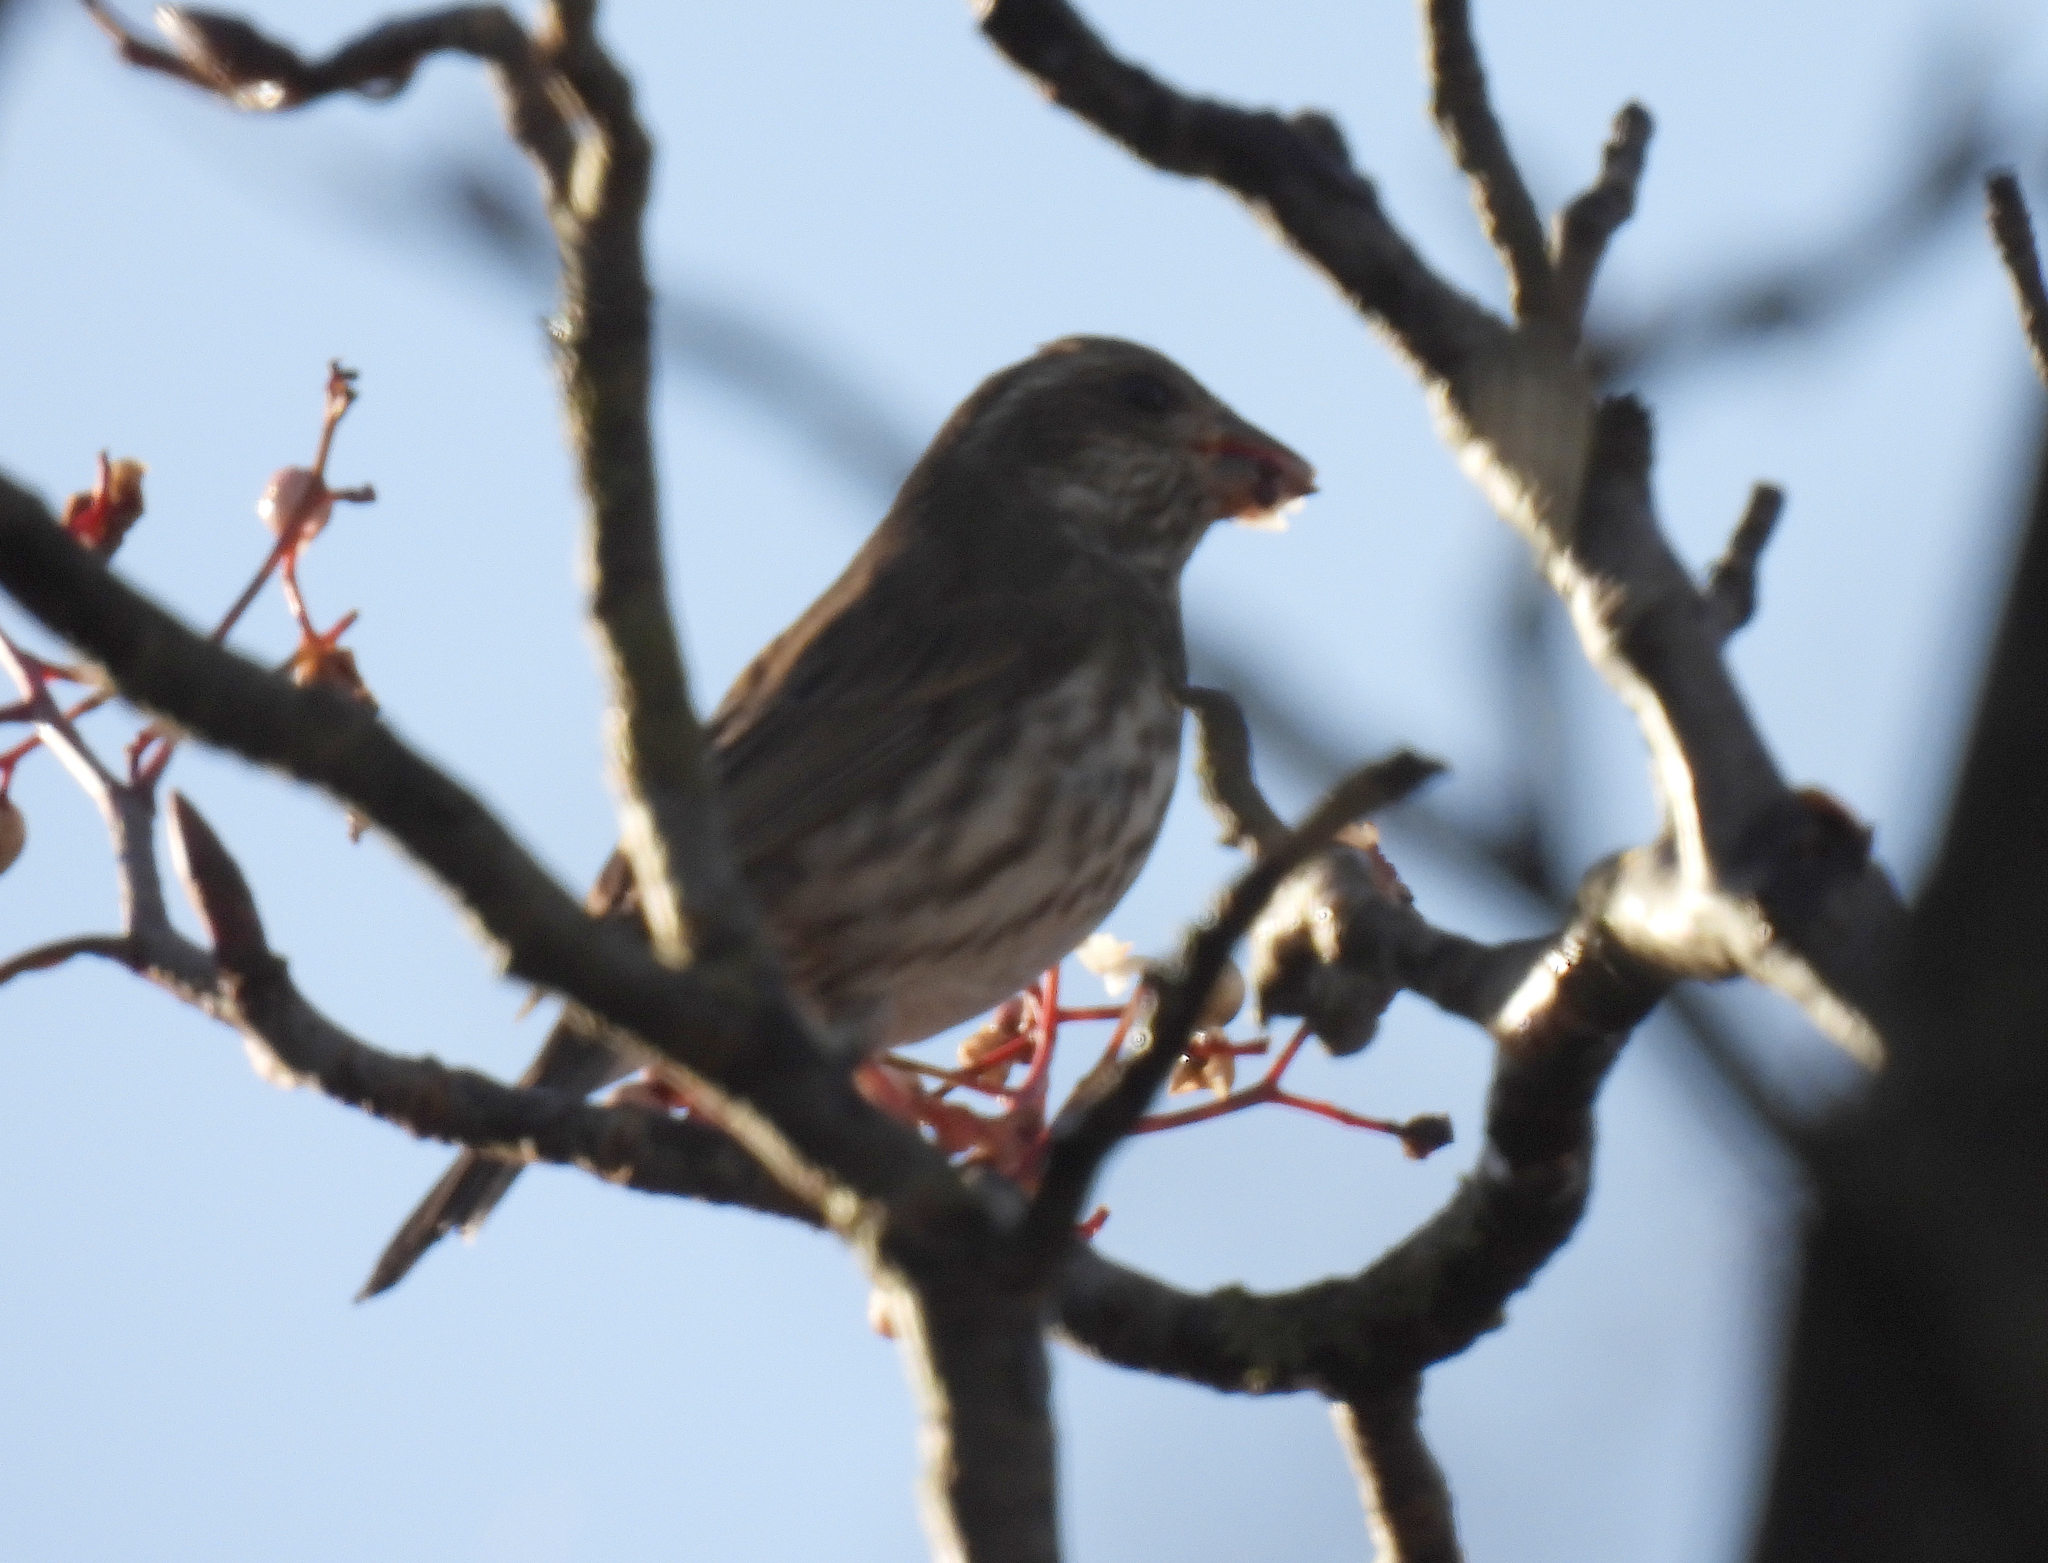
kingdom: Animalia
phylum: Chordata
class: Aves
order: Passeriformes
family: Fringillidae
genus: Haemorhous
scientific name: Haemorhous purpureus
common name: Purple finch
